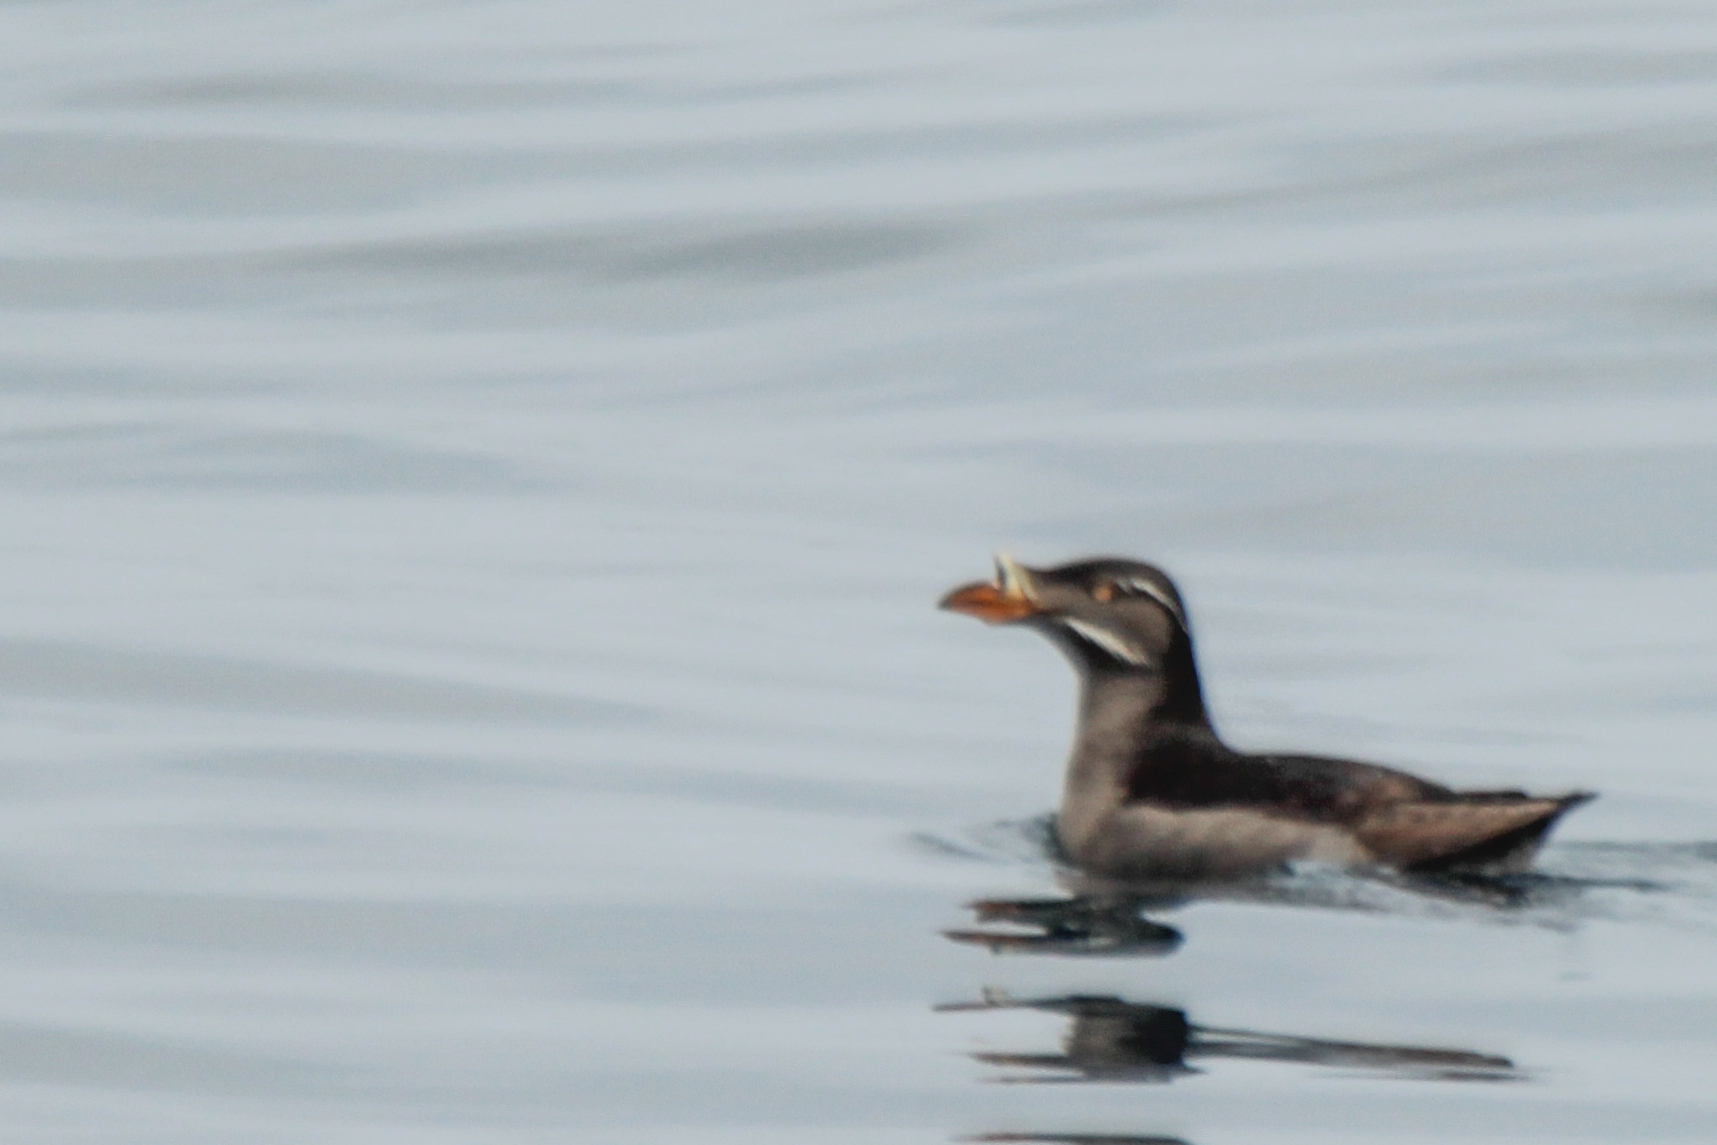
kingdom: Animalia
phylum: Chordata
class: Aves
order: Charadriiformes
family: Alcidae
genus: Cerorhinca
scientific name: Cerorhinca monocerata
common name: Rhinoceros auklet
